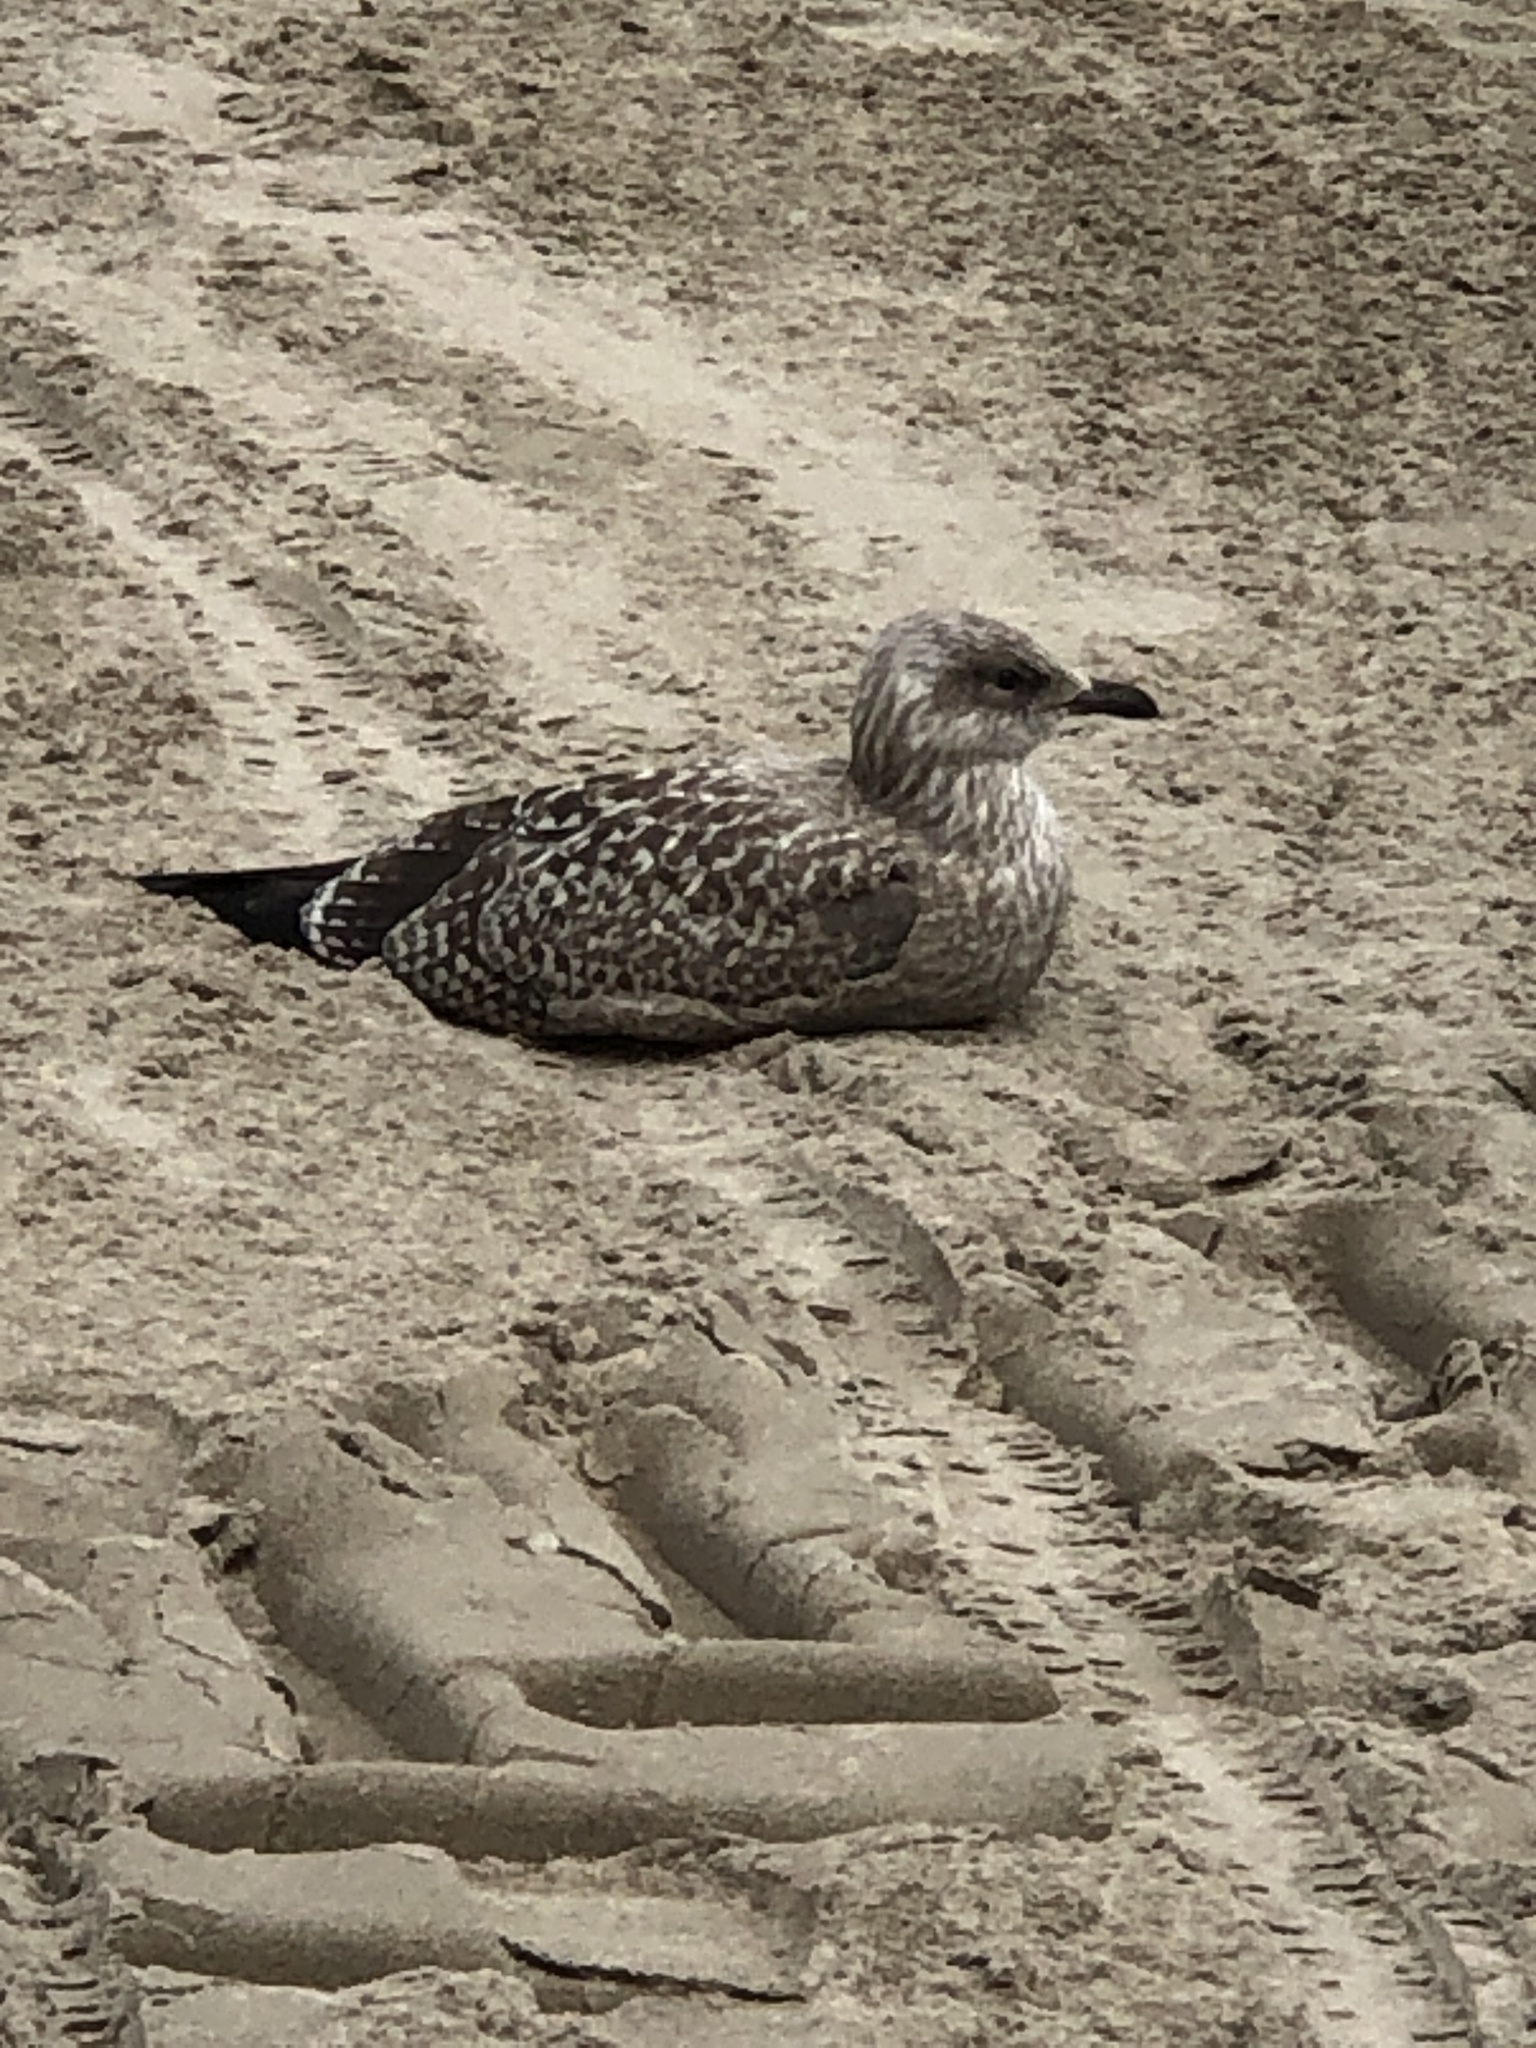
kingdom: Animalia
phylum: Chordata
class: Aves
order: Charadriiformes
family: Laridae
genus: Larus
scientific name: Larus argentatus
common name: Herring gull
